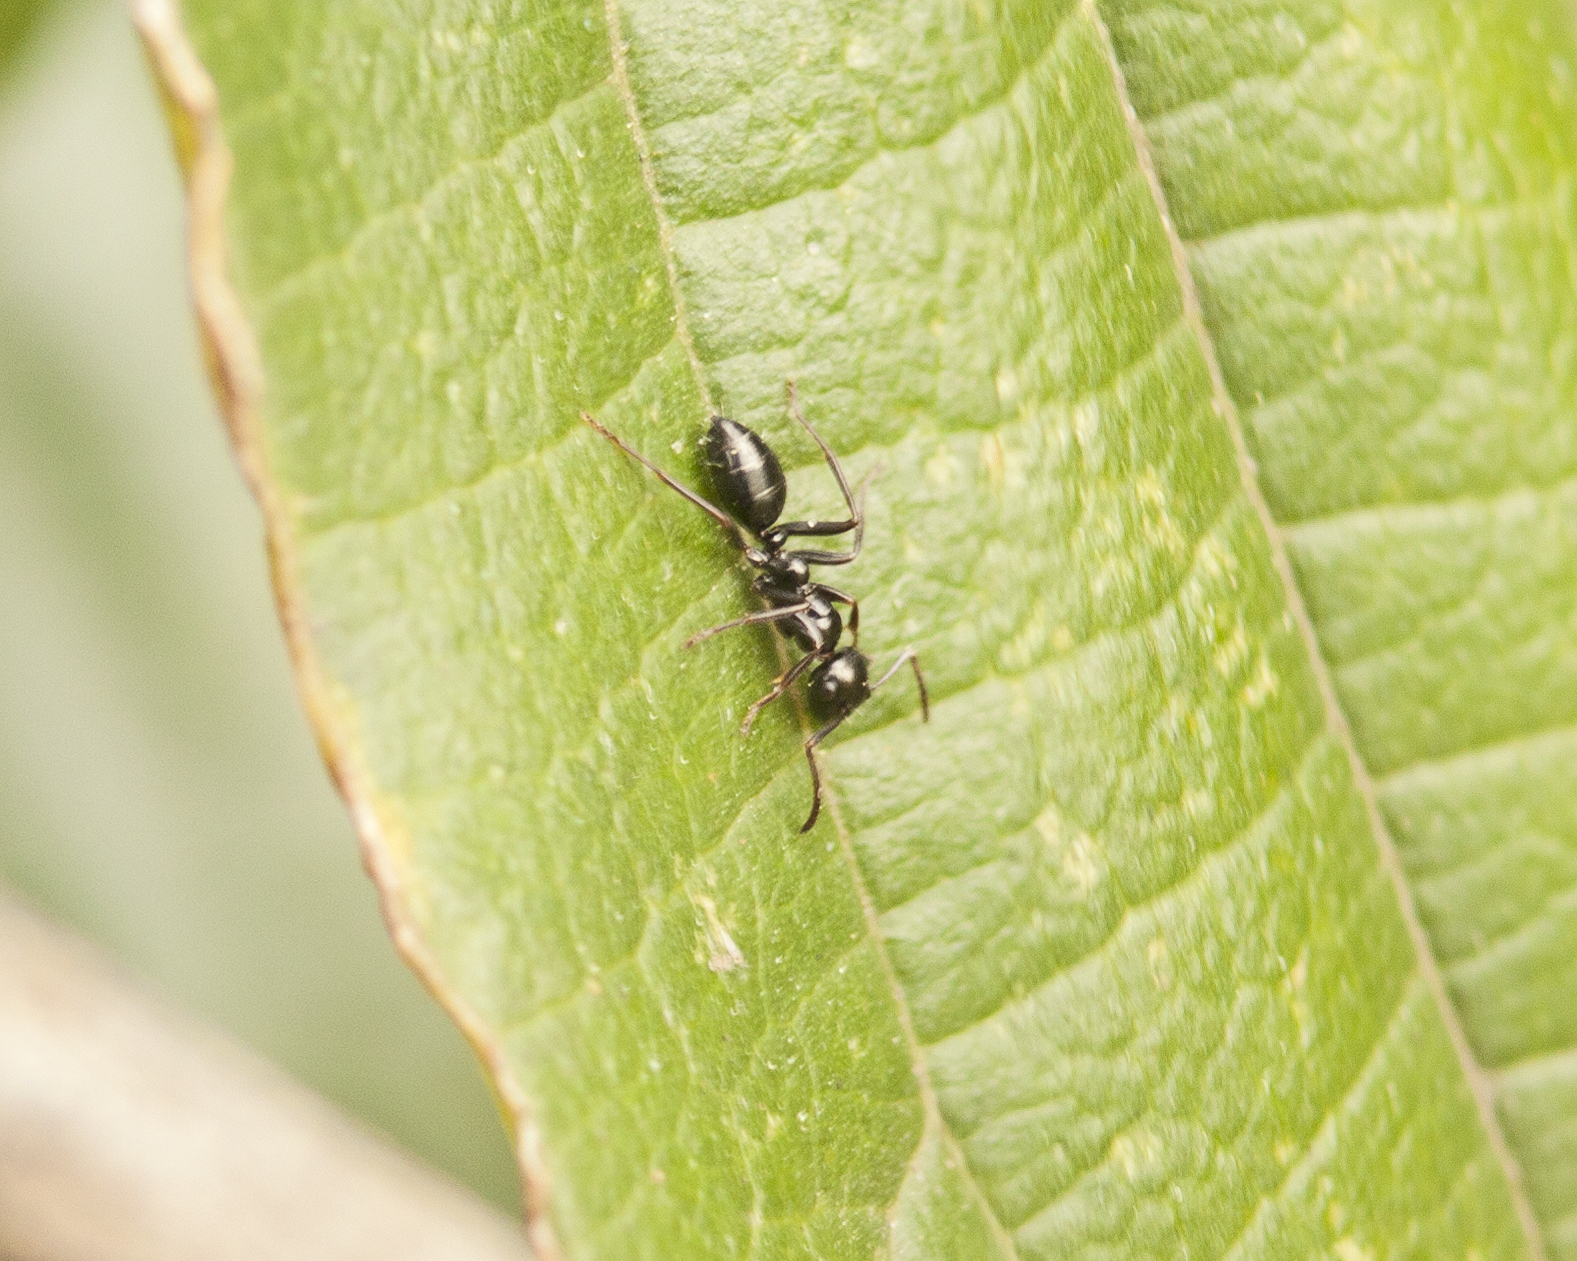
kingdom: Animalia
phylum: Arthropoda
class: Insecta
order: Hymenoptera
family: Formicidae
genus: Colobopsis
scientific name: Colobopsis gasseri
